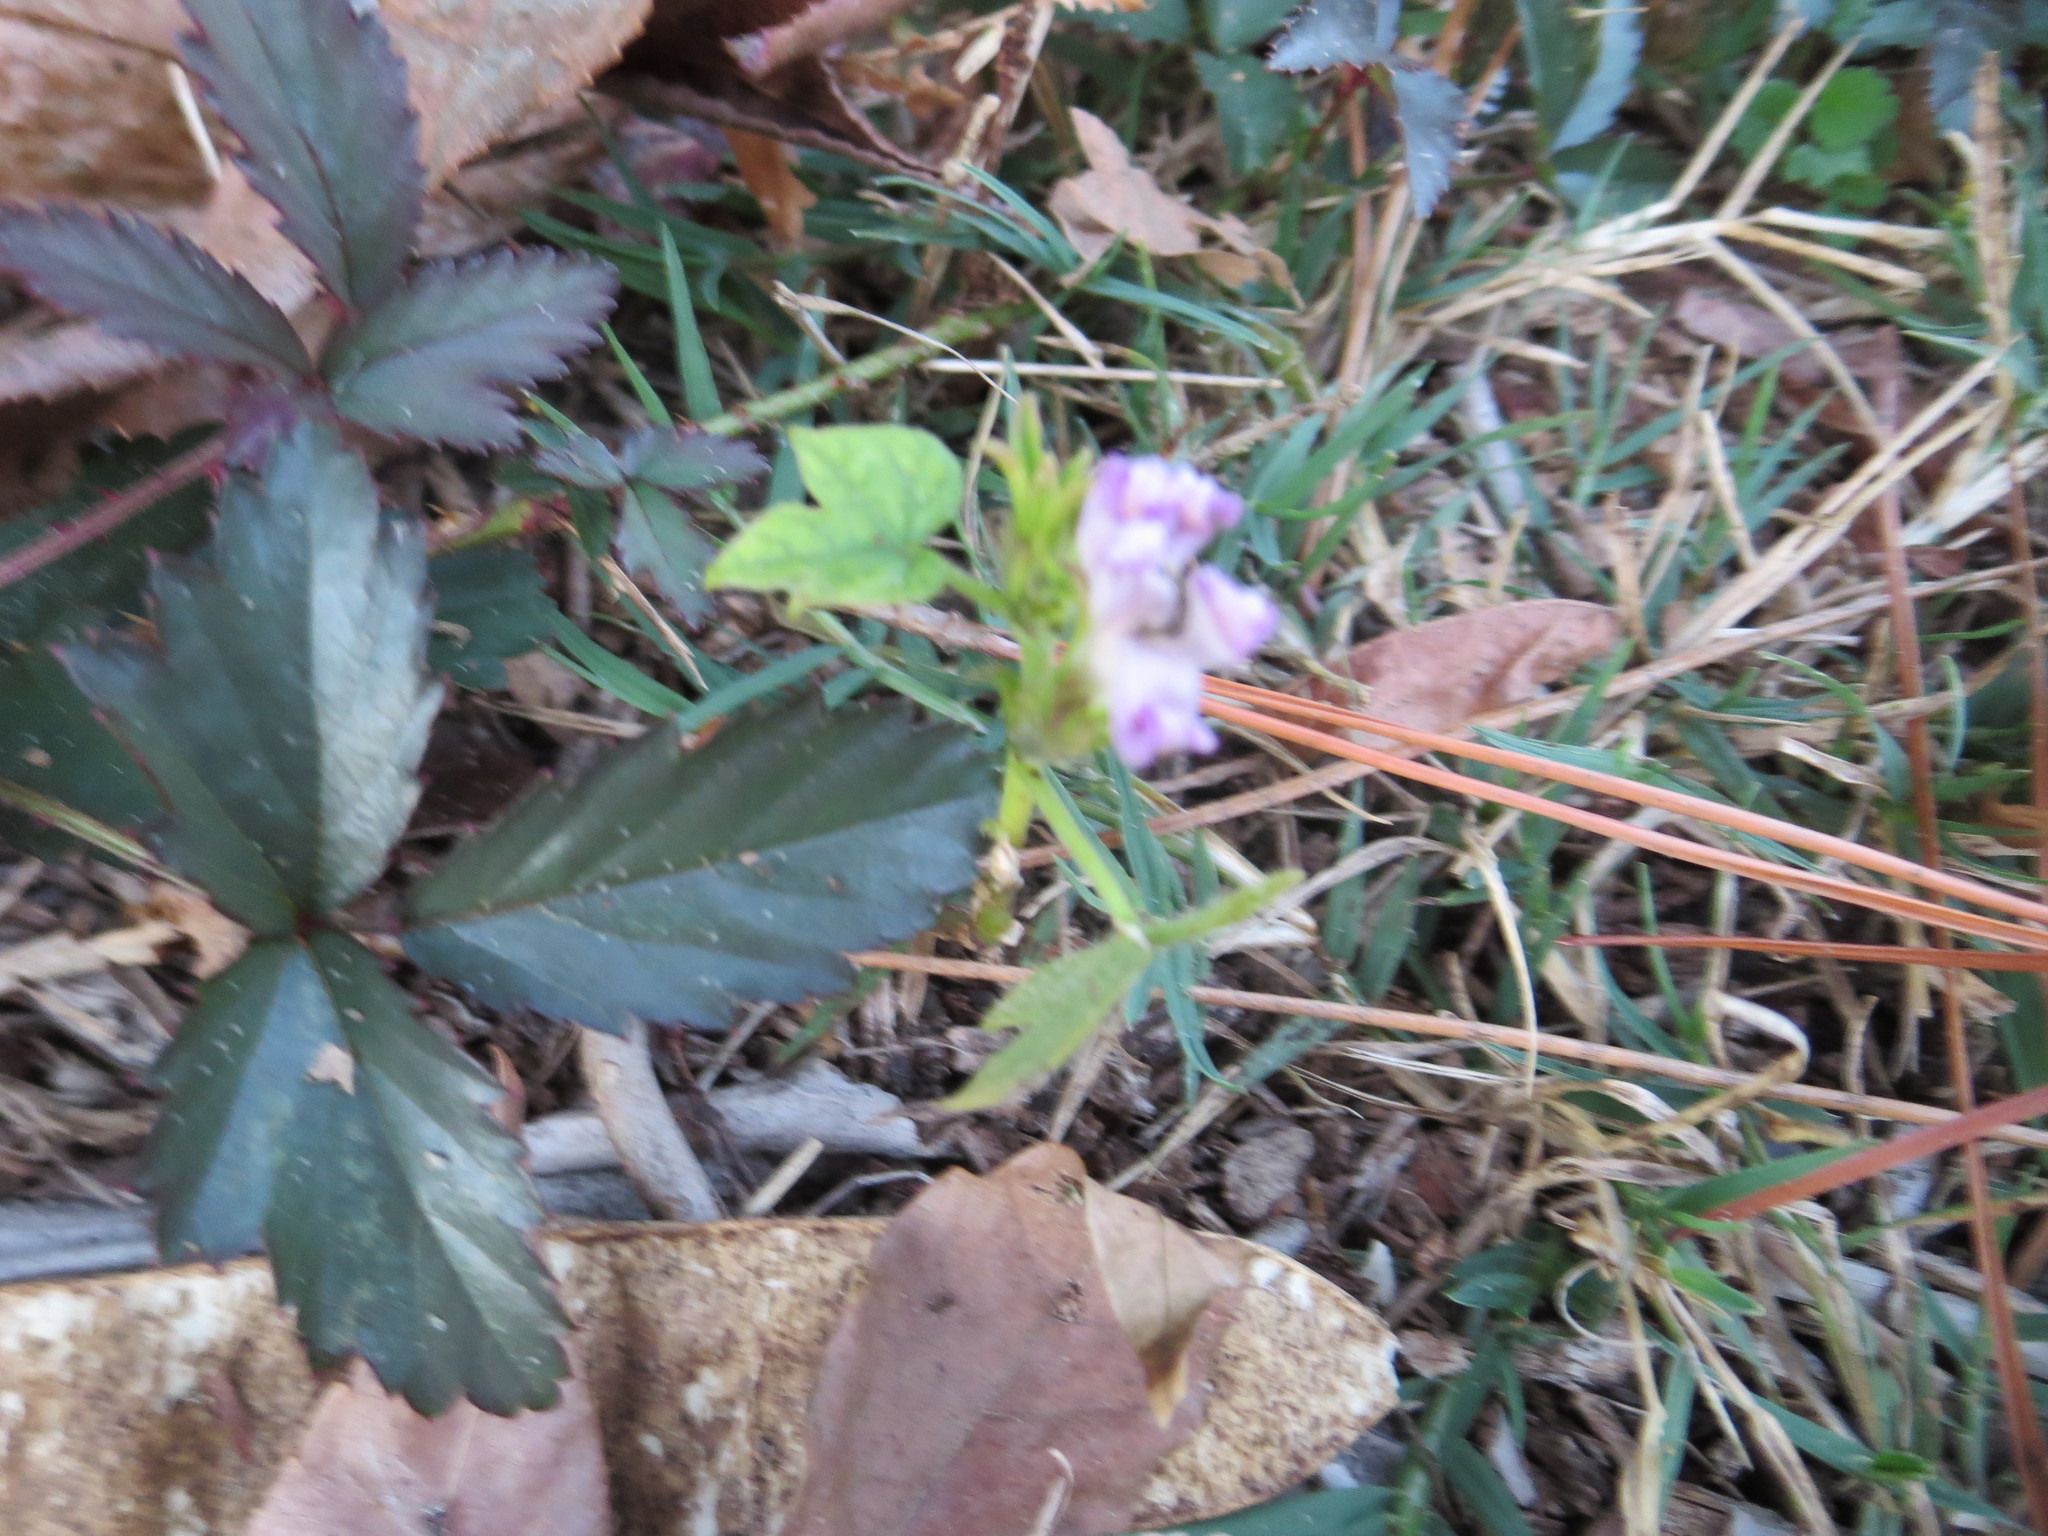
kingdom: Plantae
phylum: Tracheophyta
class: Magnoliopsida
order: Rosales
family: Rosaceae
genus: Rubus
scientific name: Rubus trivialis
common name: Southern dewberry
